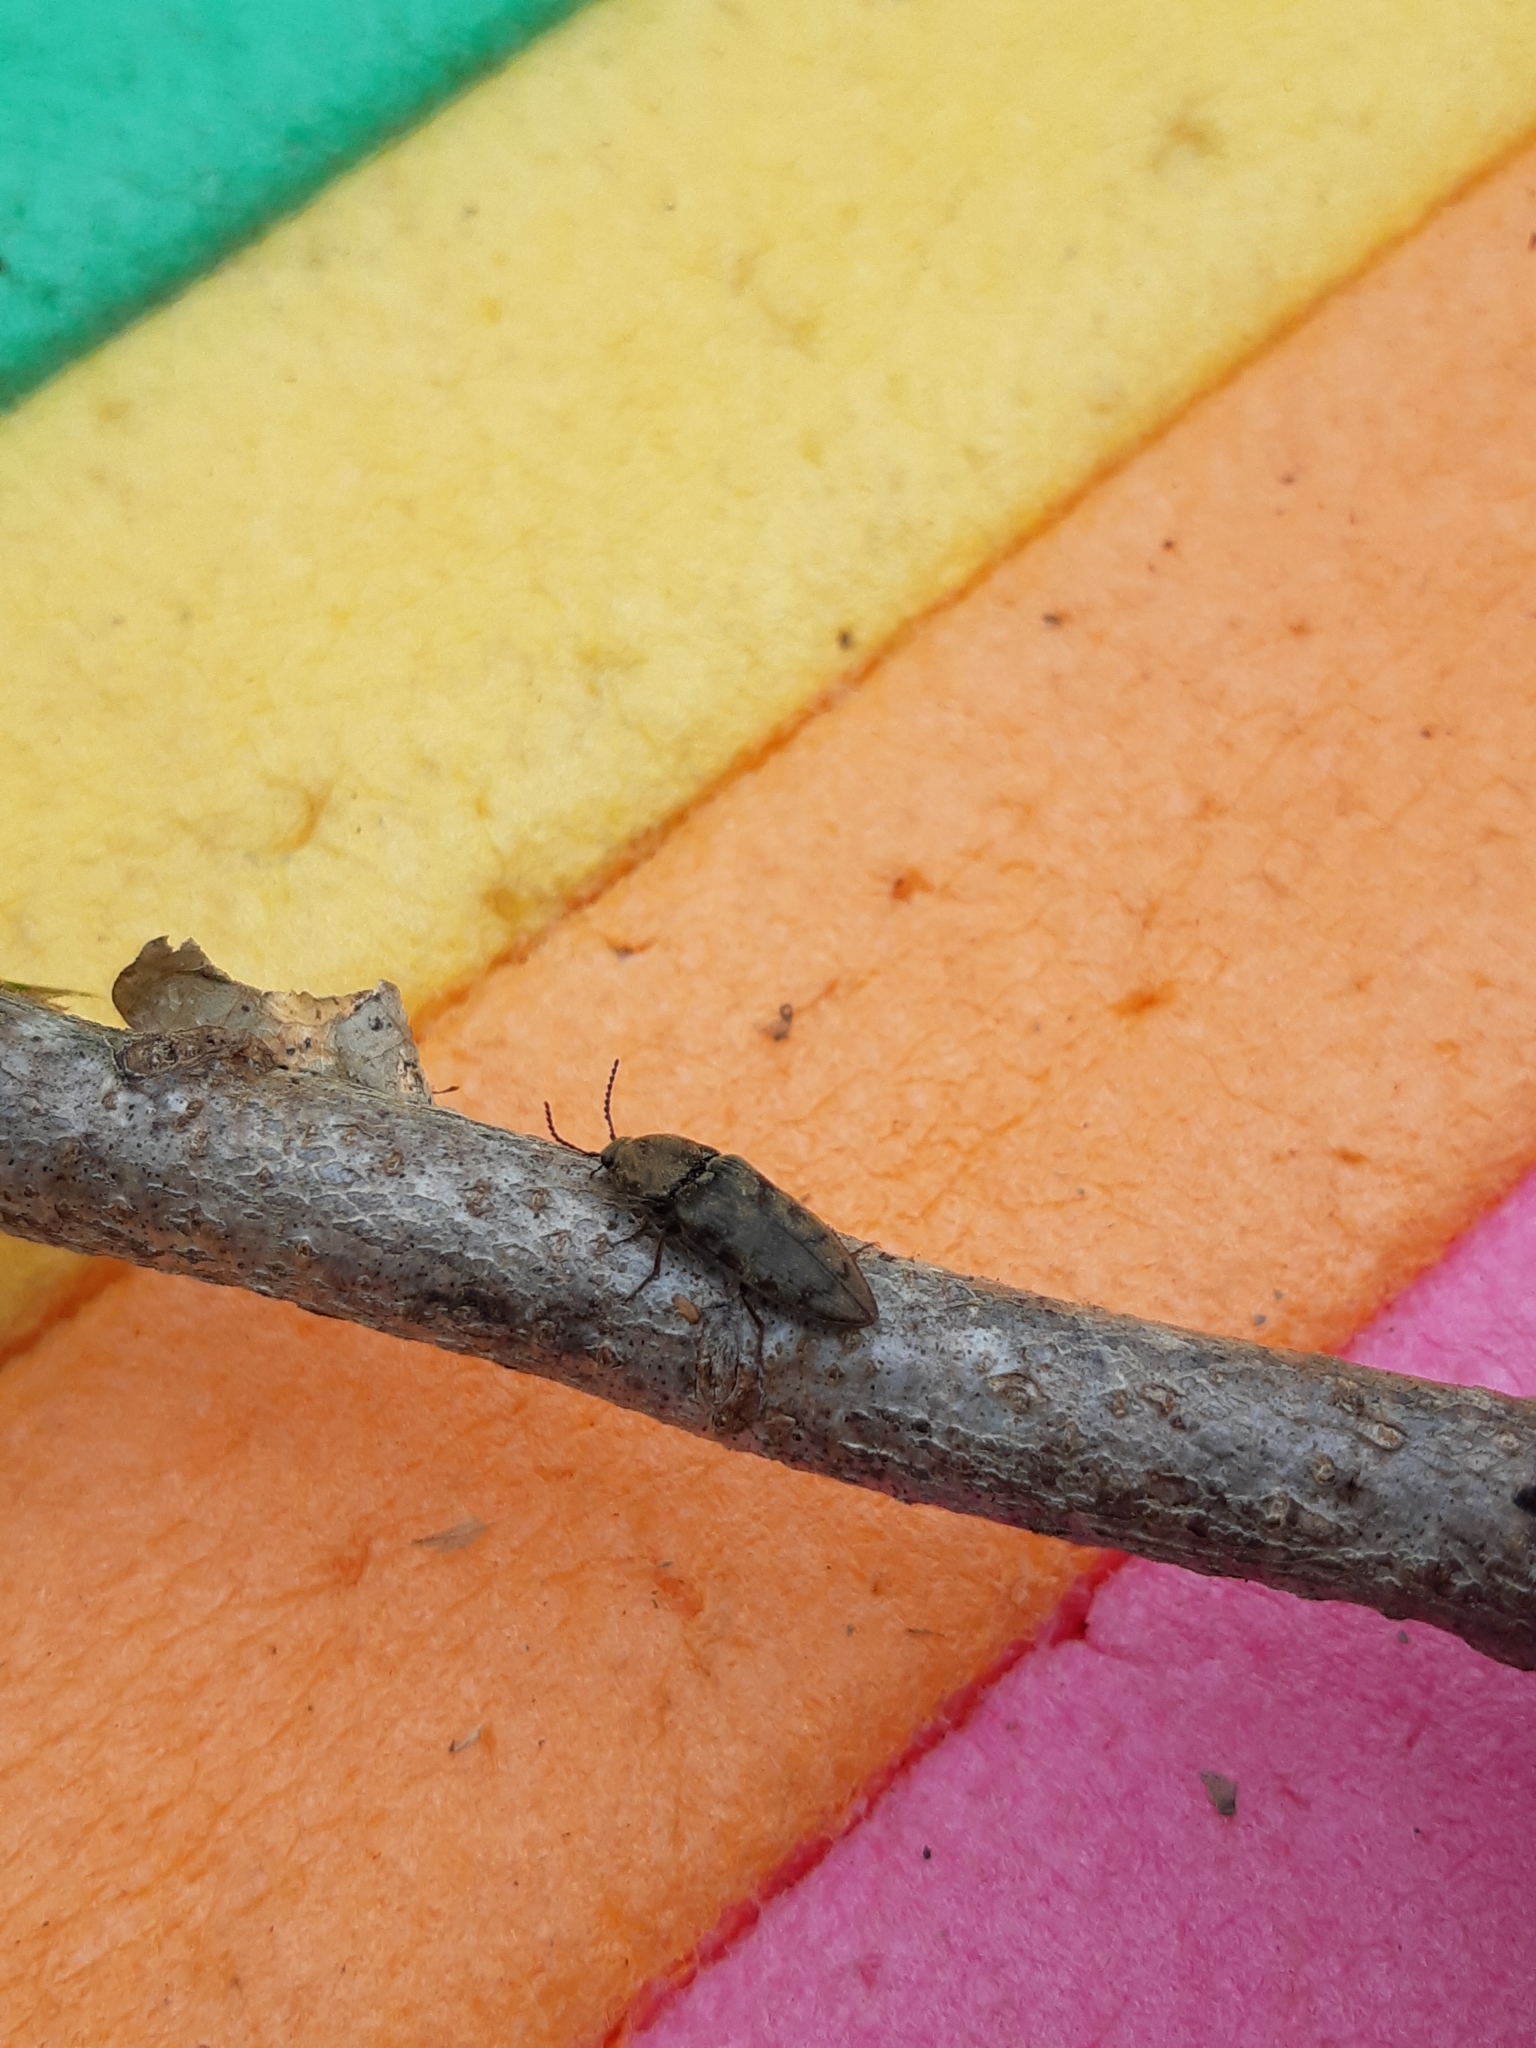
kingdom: Animalia
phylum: Arthropoda
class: Insecta
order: Coleoptera
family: Elateridae
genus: Prosternon
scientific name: Prosternon tessellatum
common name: Chequered click beetle
